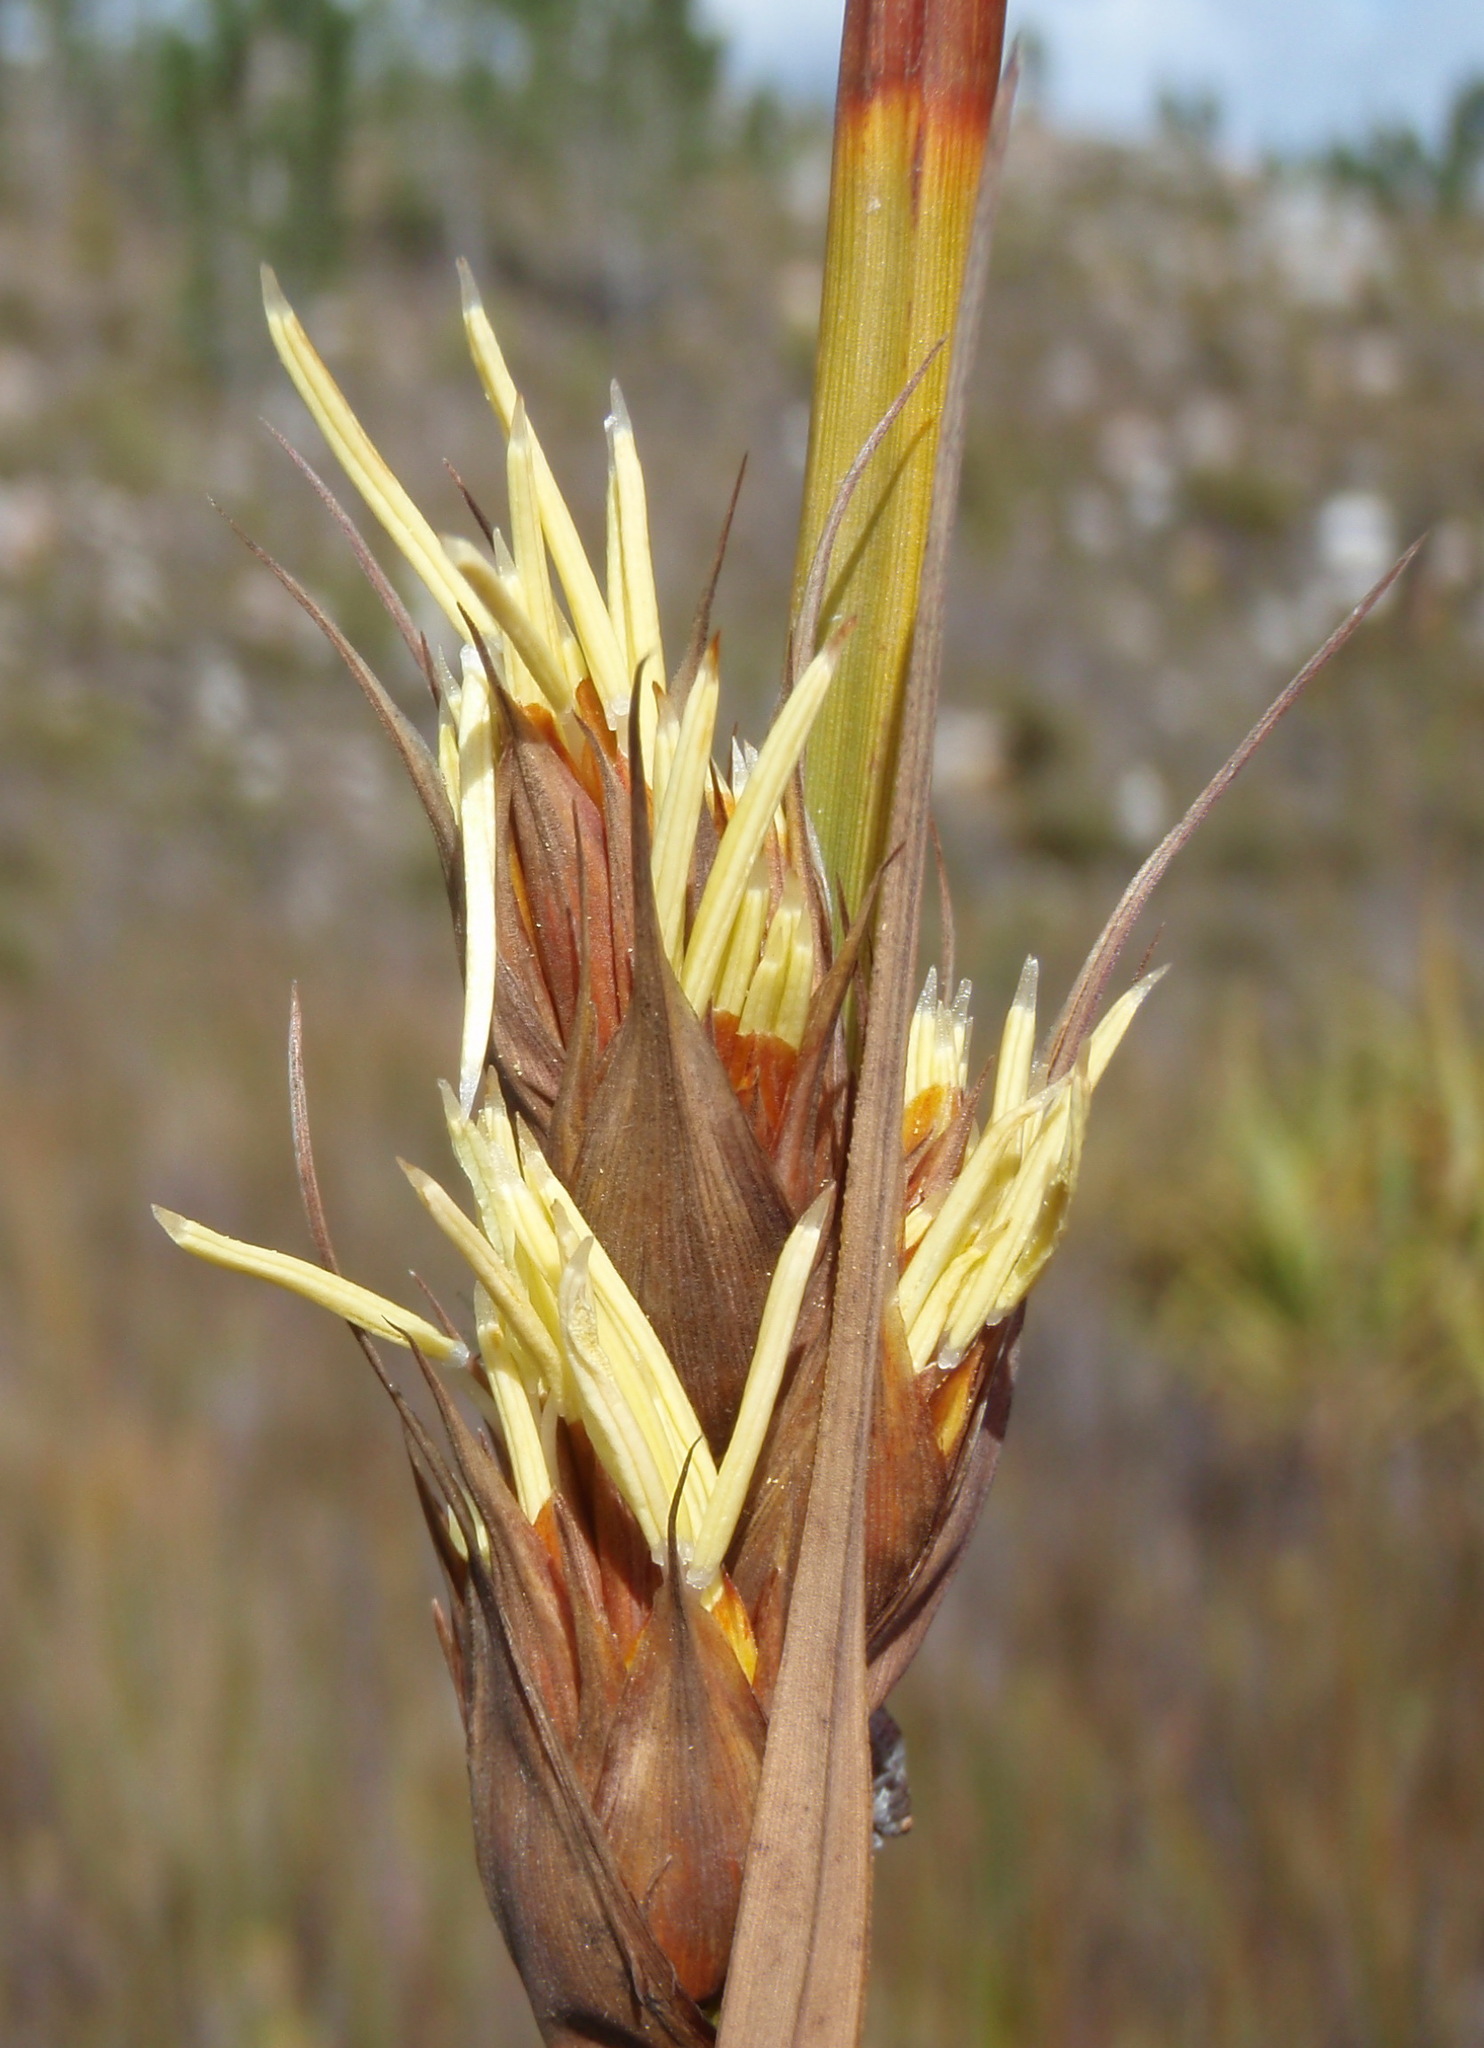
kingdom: Plantae
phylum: Tracheophyta
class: Liliopsida
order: Poales
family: Cyperaceae
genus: Tetraria
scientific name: Tetraria thermalis
